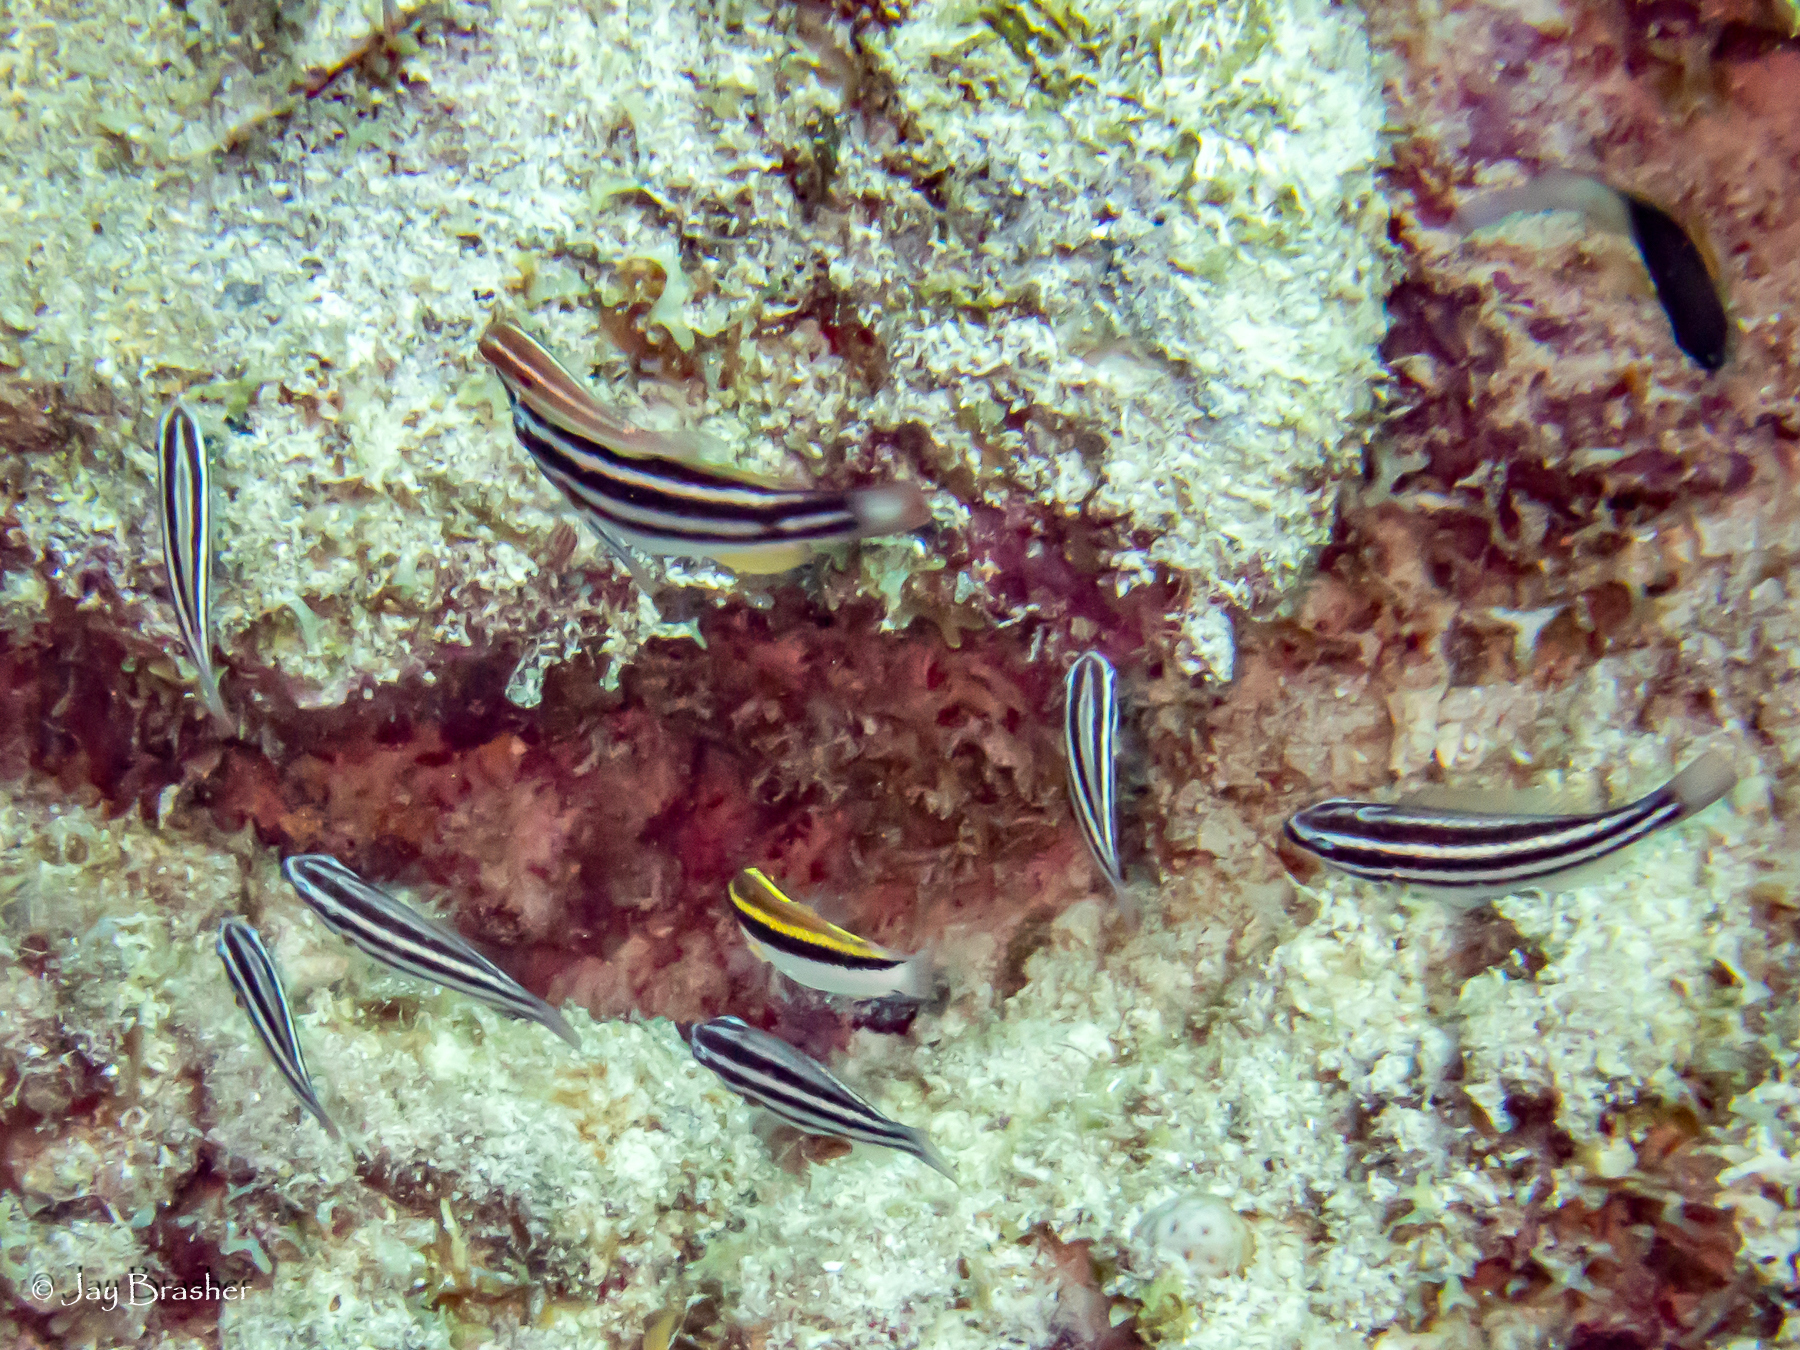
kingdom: Animalia
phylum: Chordata
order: Perciformes
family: Labridae
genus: Halichoeres
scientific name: Halichoeres maculipinna
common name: Clown wrasse
